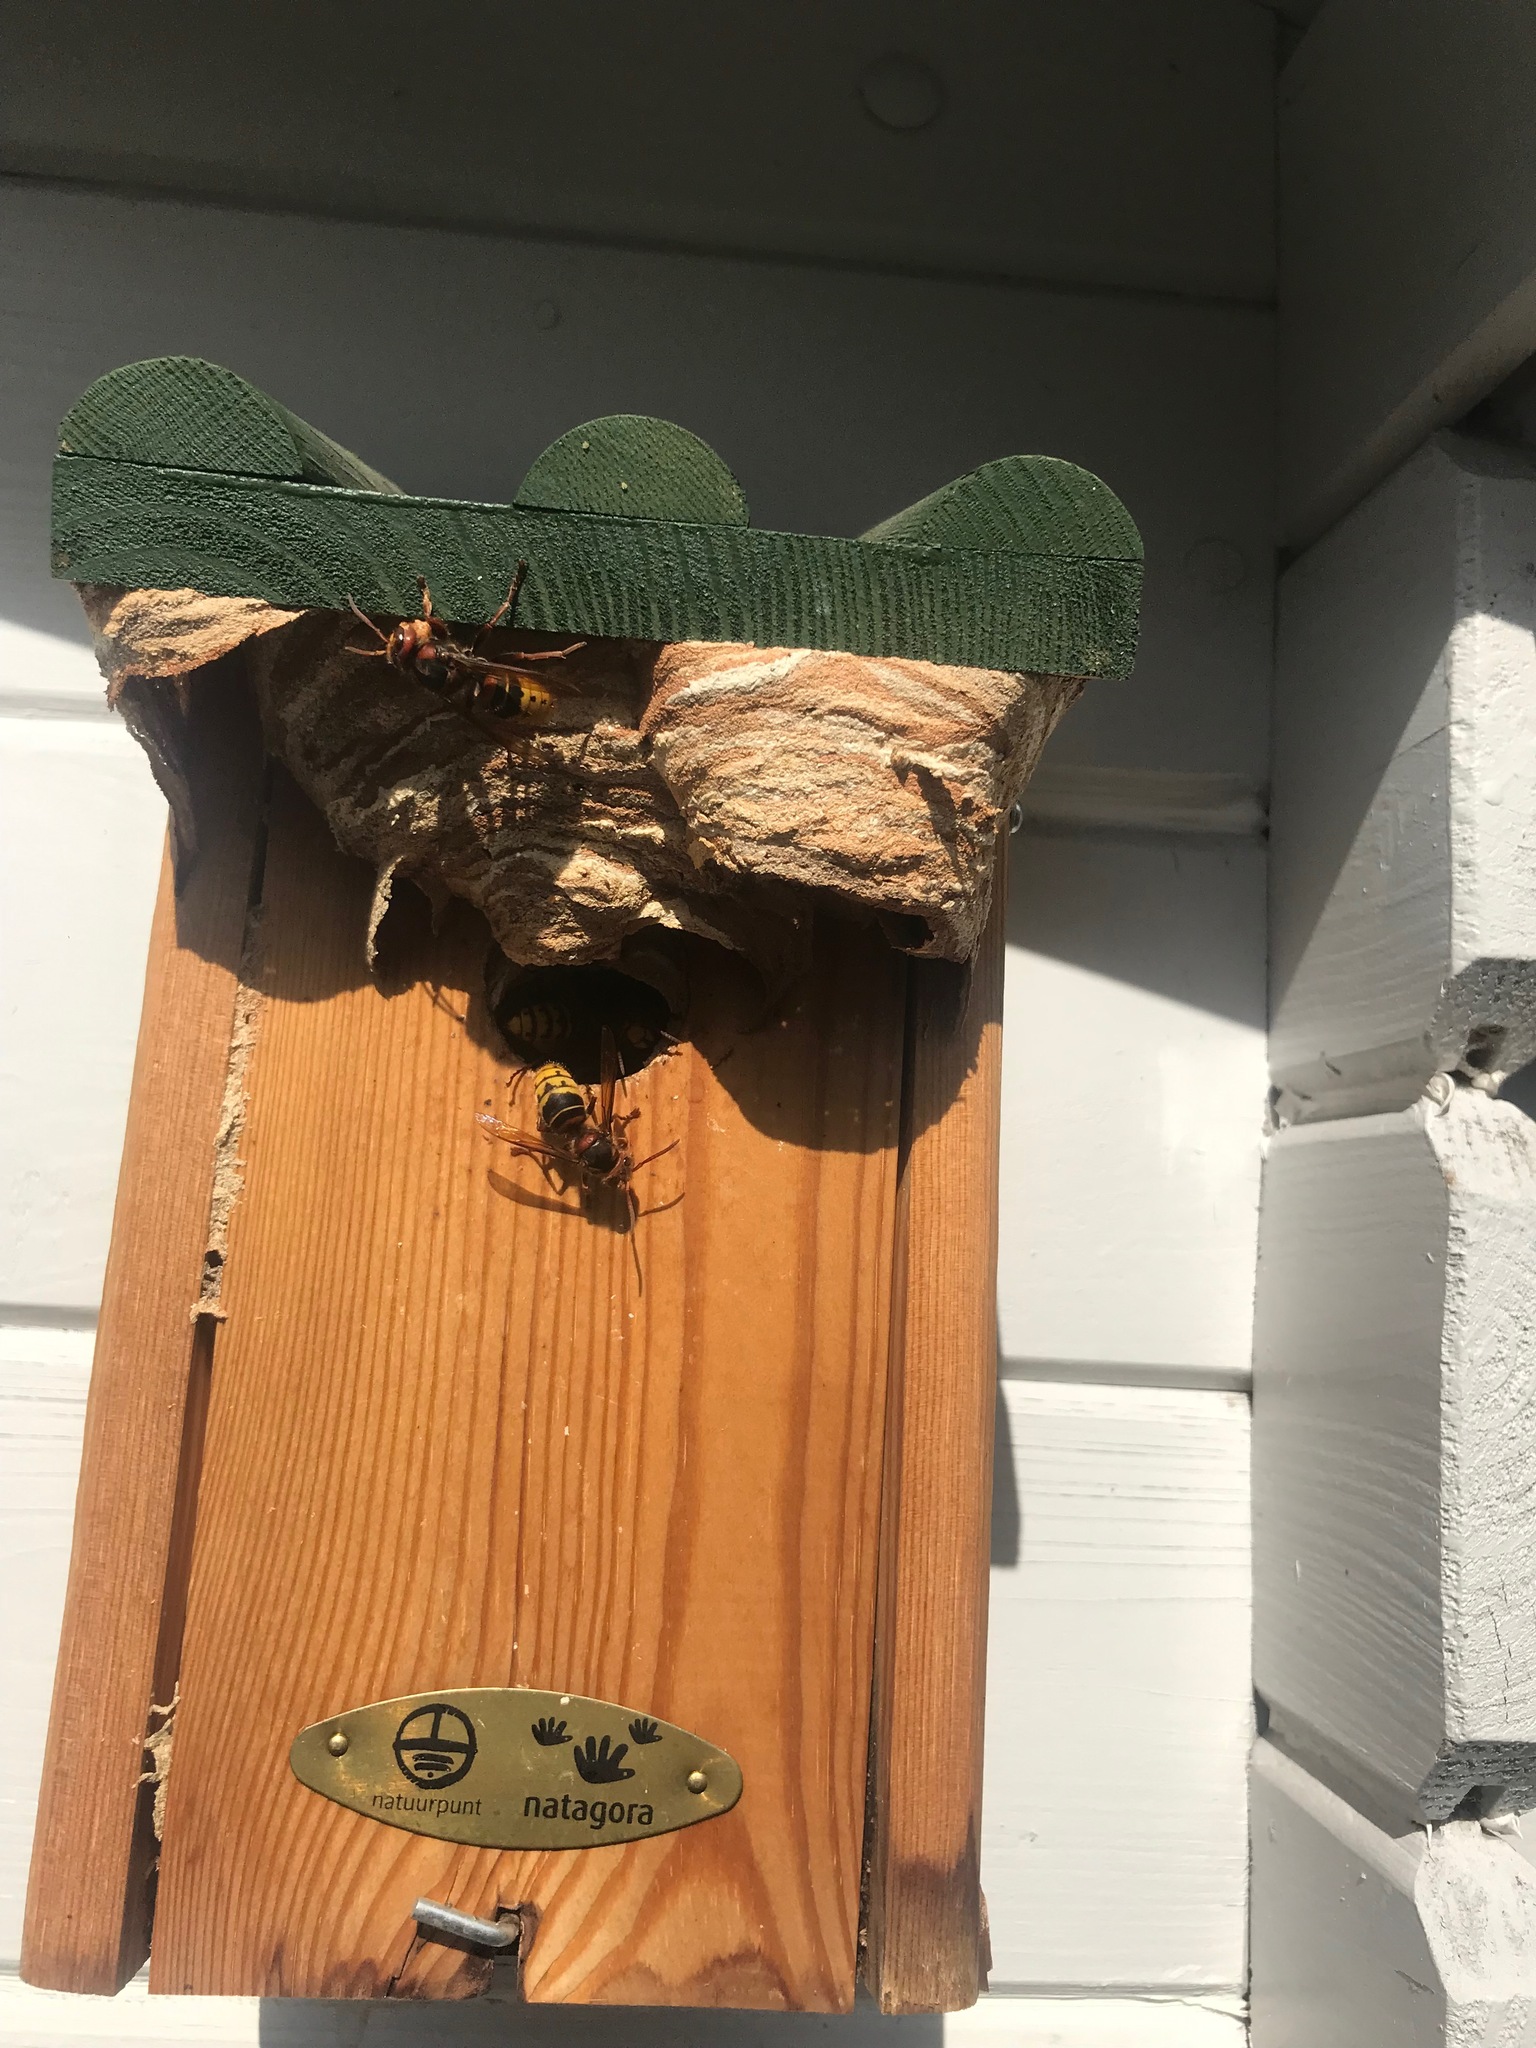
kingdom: Animalia
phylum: Arthropoda
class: Insecta
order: Hymenoptera
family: Vespidae
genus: Vespa
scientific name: Vespa crabro
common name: Hornet
